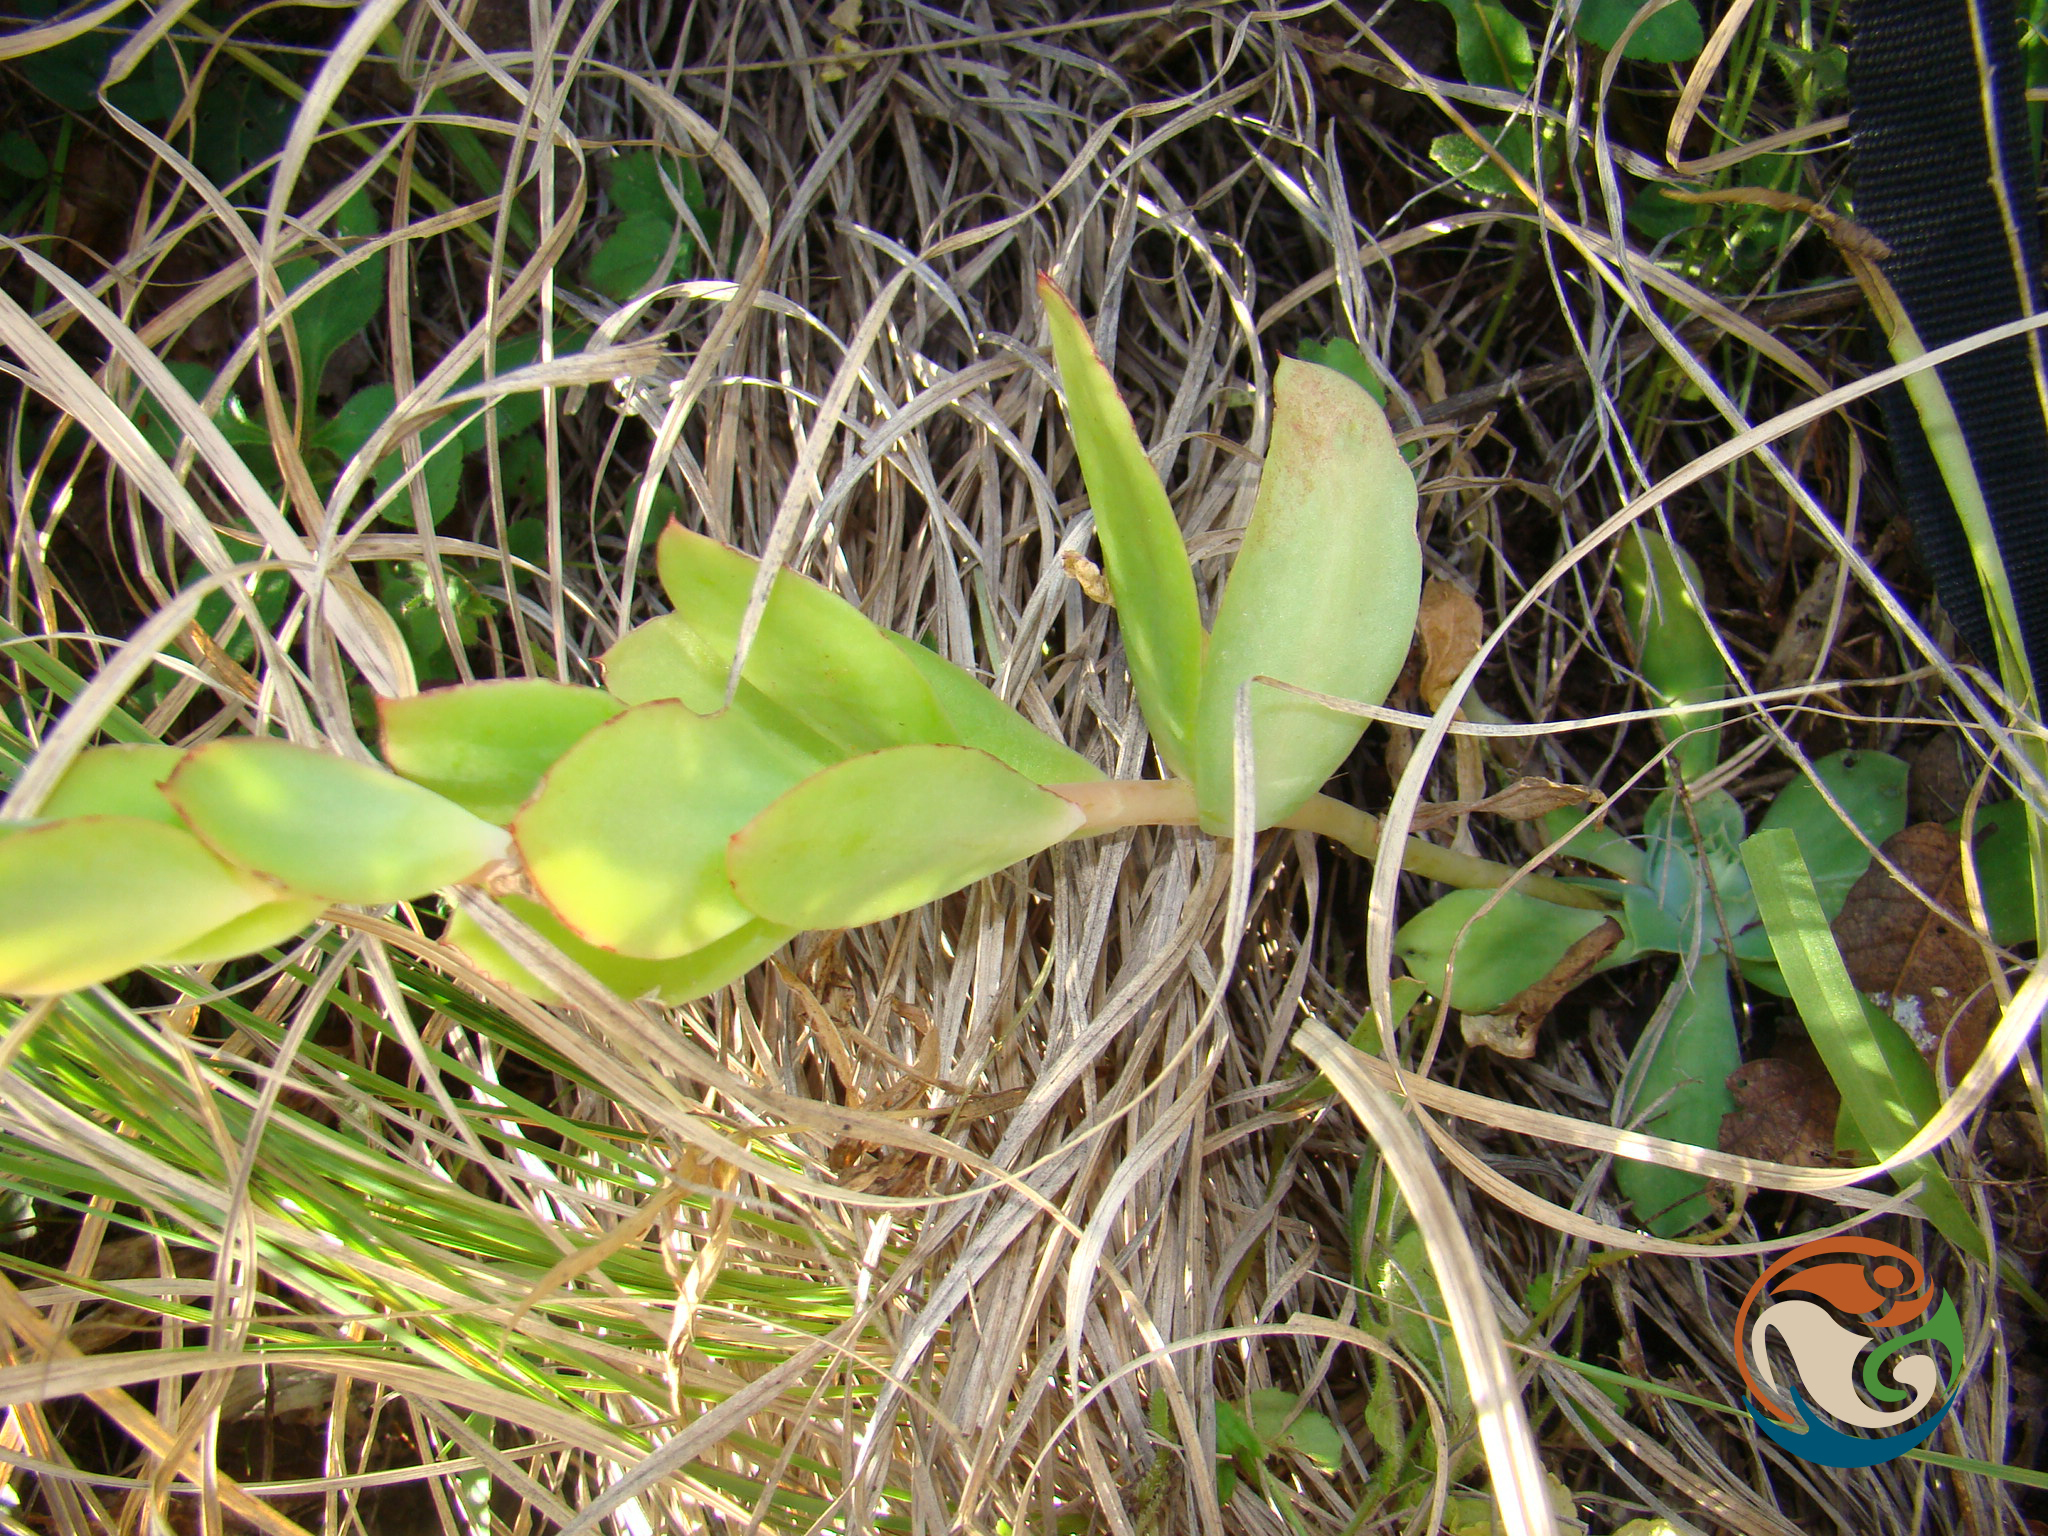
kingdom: Plantae
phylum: Tracheophyta
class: Magnoliopsida
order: Saxifragales
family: Crassulaceae
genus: Echeveria
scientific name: Echeveria megacalyx
